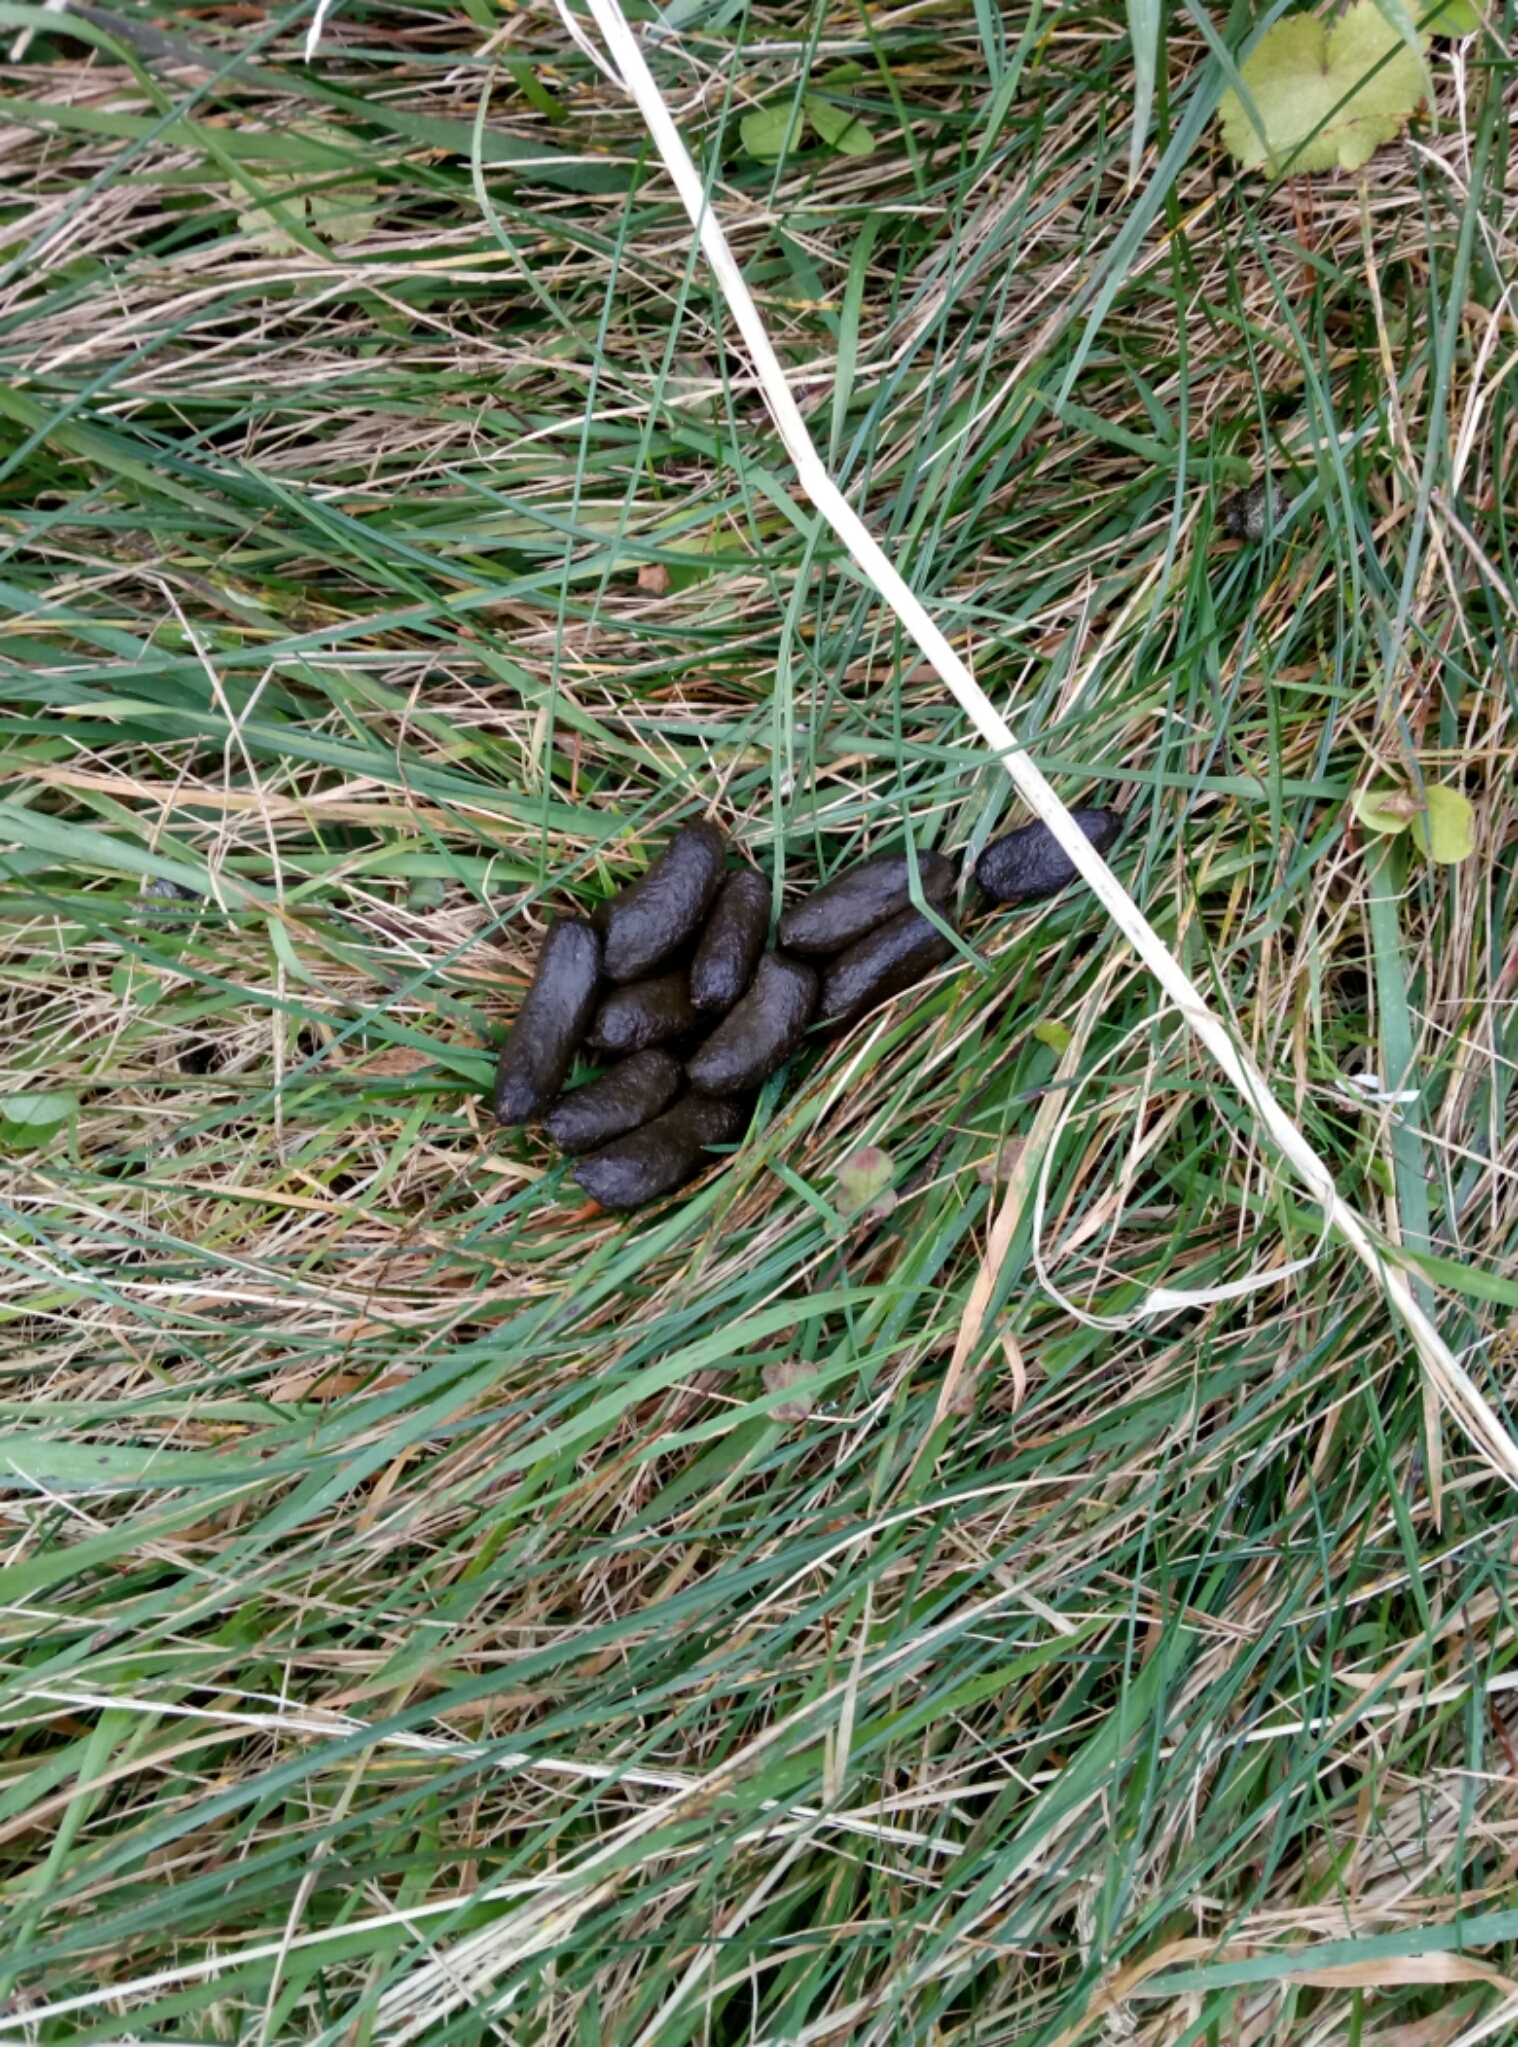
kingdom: Animalia
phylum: Chordata
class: Mammalia
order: Diprotodontia
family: Phalangeridae
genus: Trichosurus
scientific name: Trichosurus vulpecula
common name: Common brushtail
